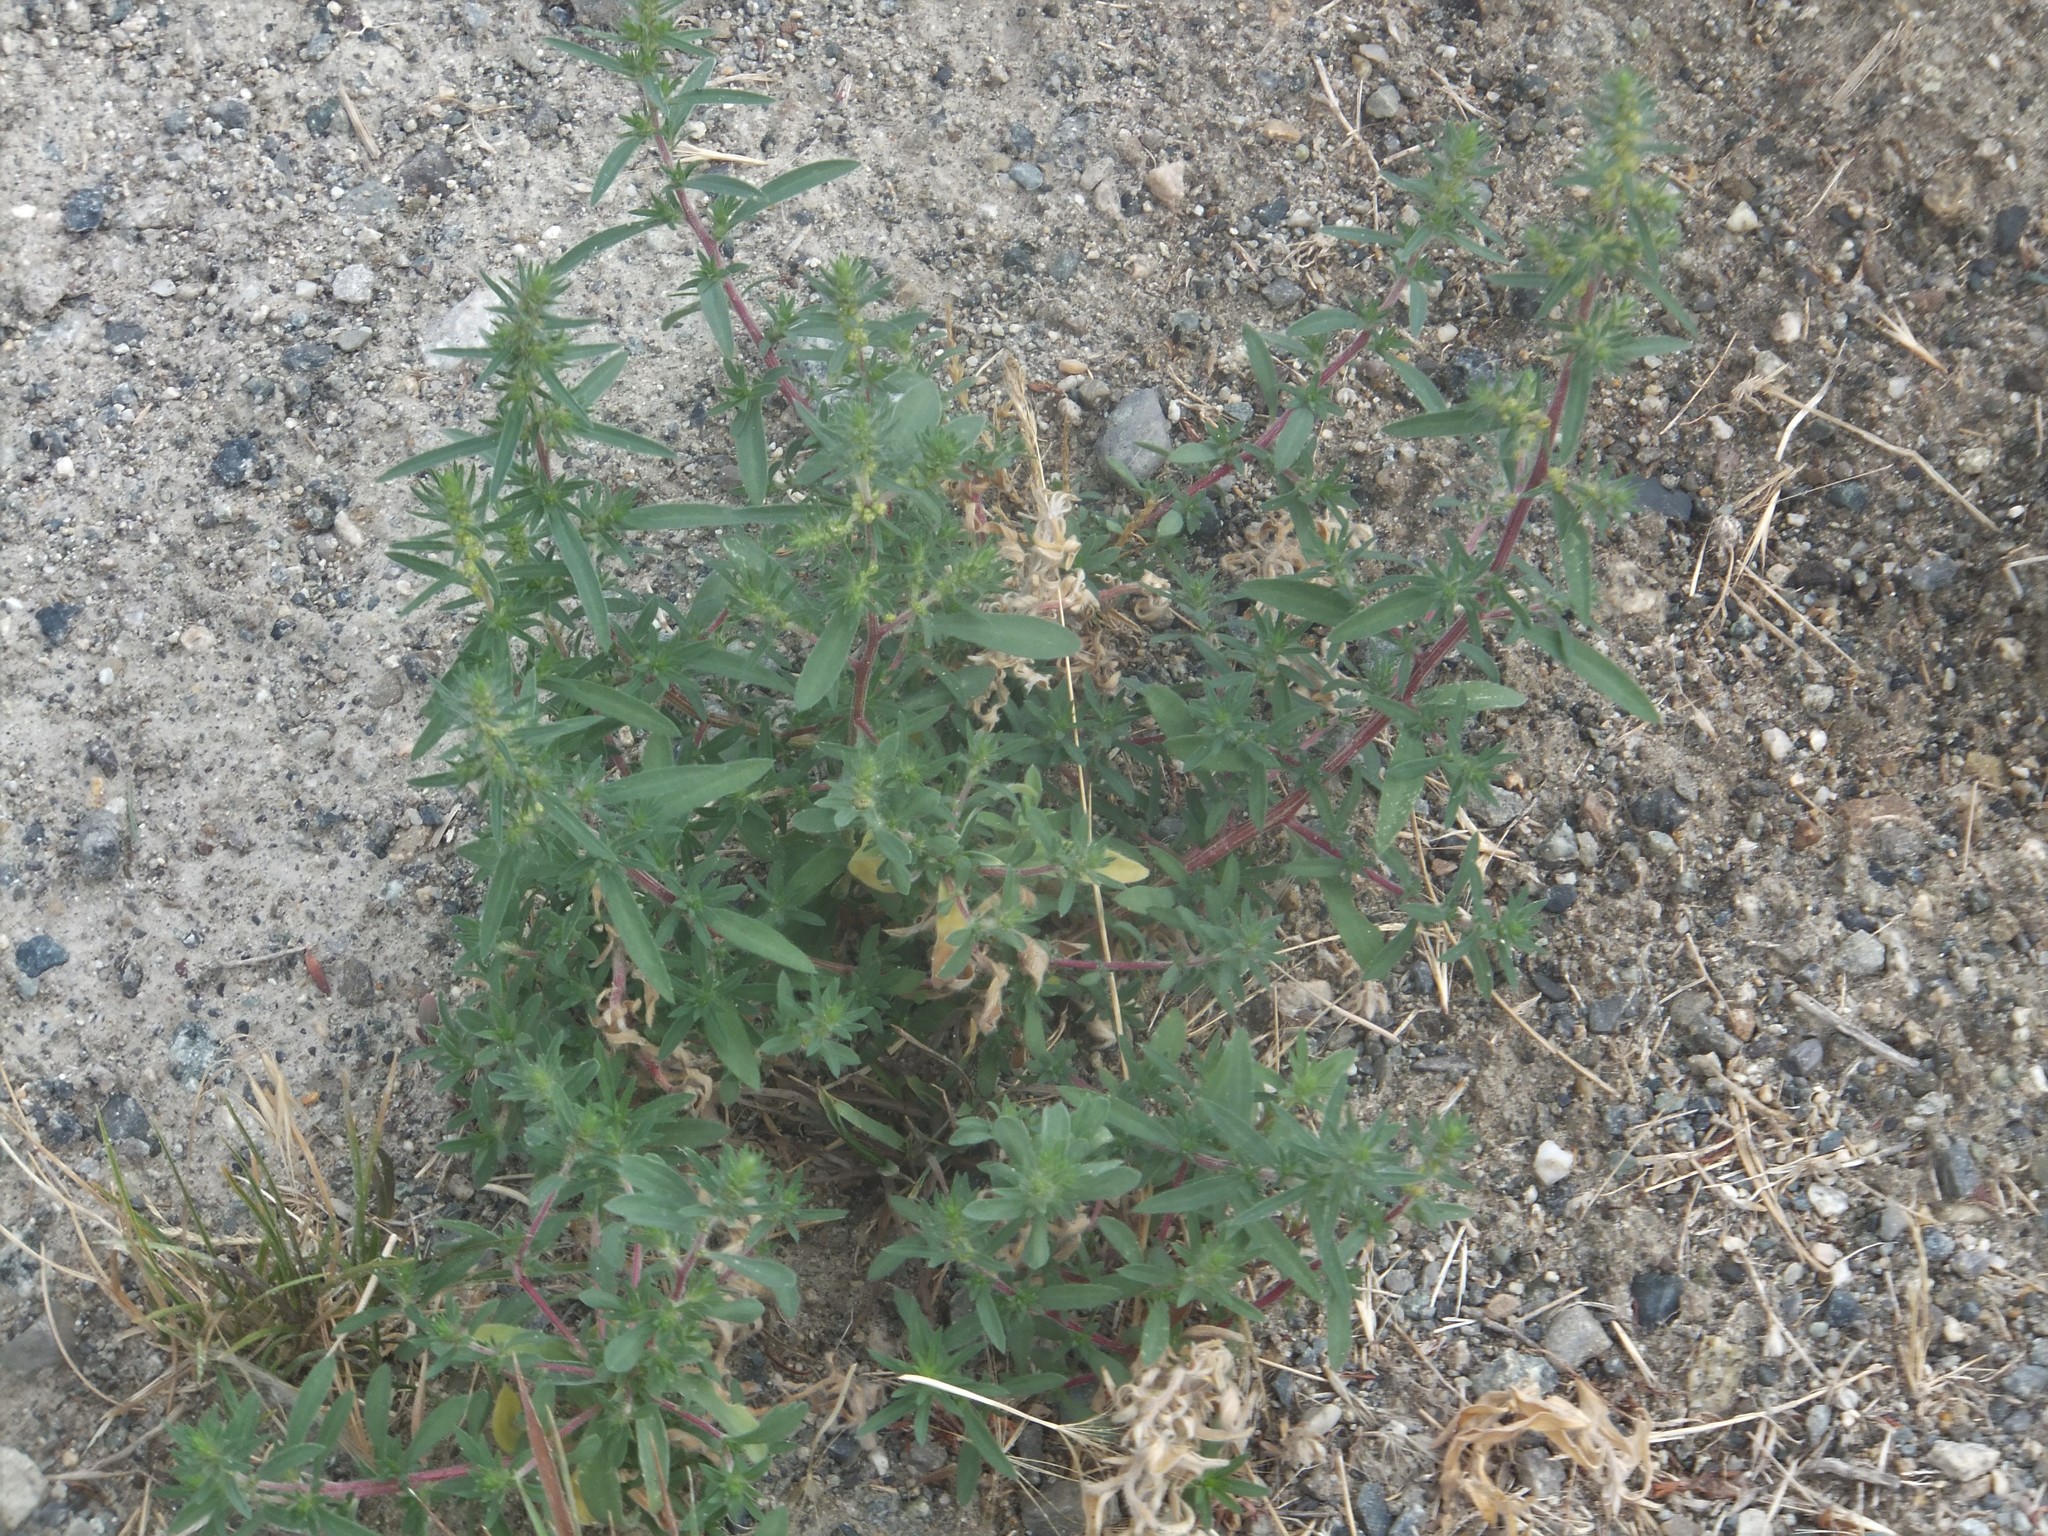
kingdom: Plantae
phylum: Tracheophyta
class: Magnoliopsida
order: Caryophyllales
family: Amaranthaceae
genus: Bassia
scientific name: Bassia scoparia
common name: Belvedere
